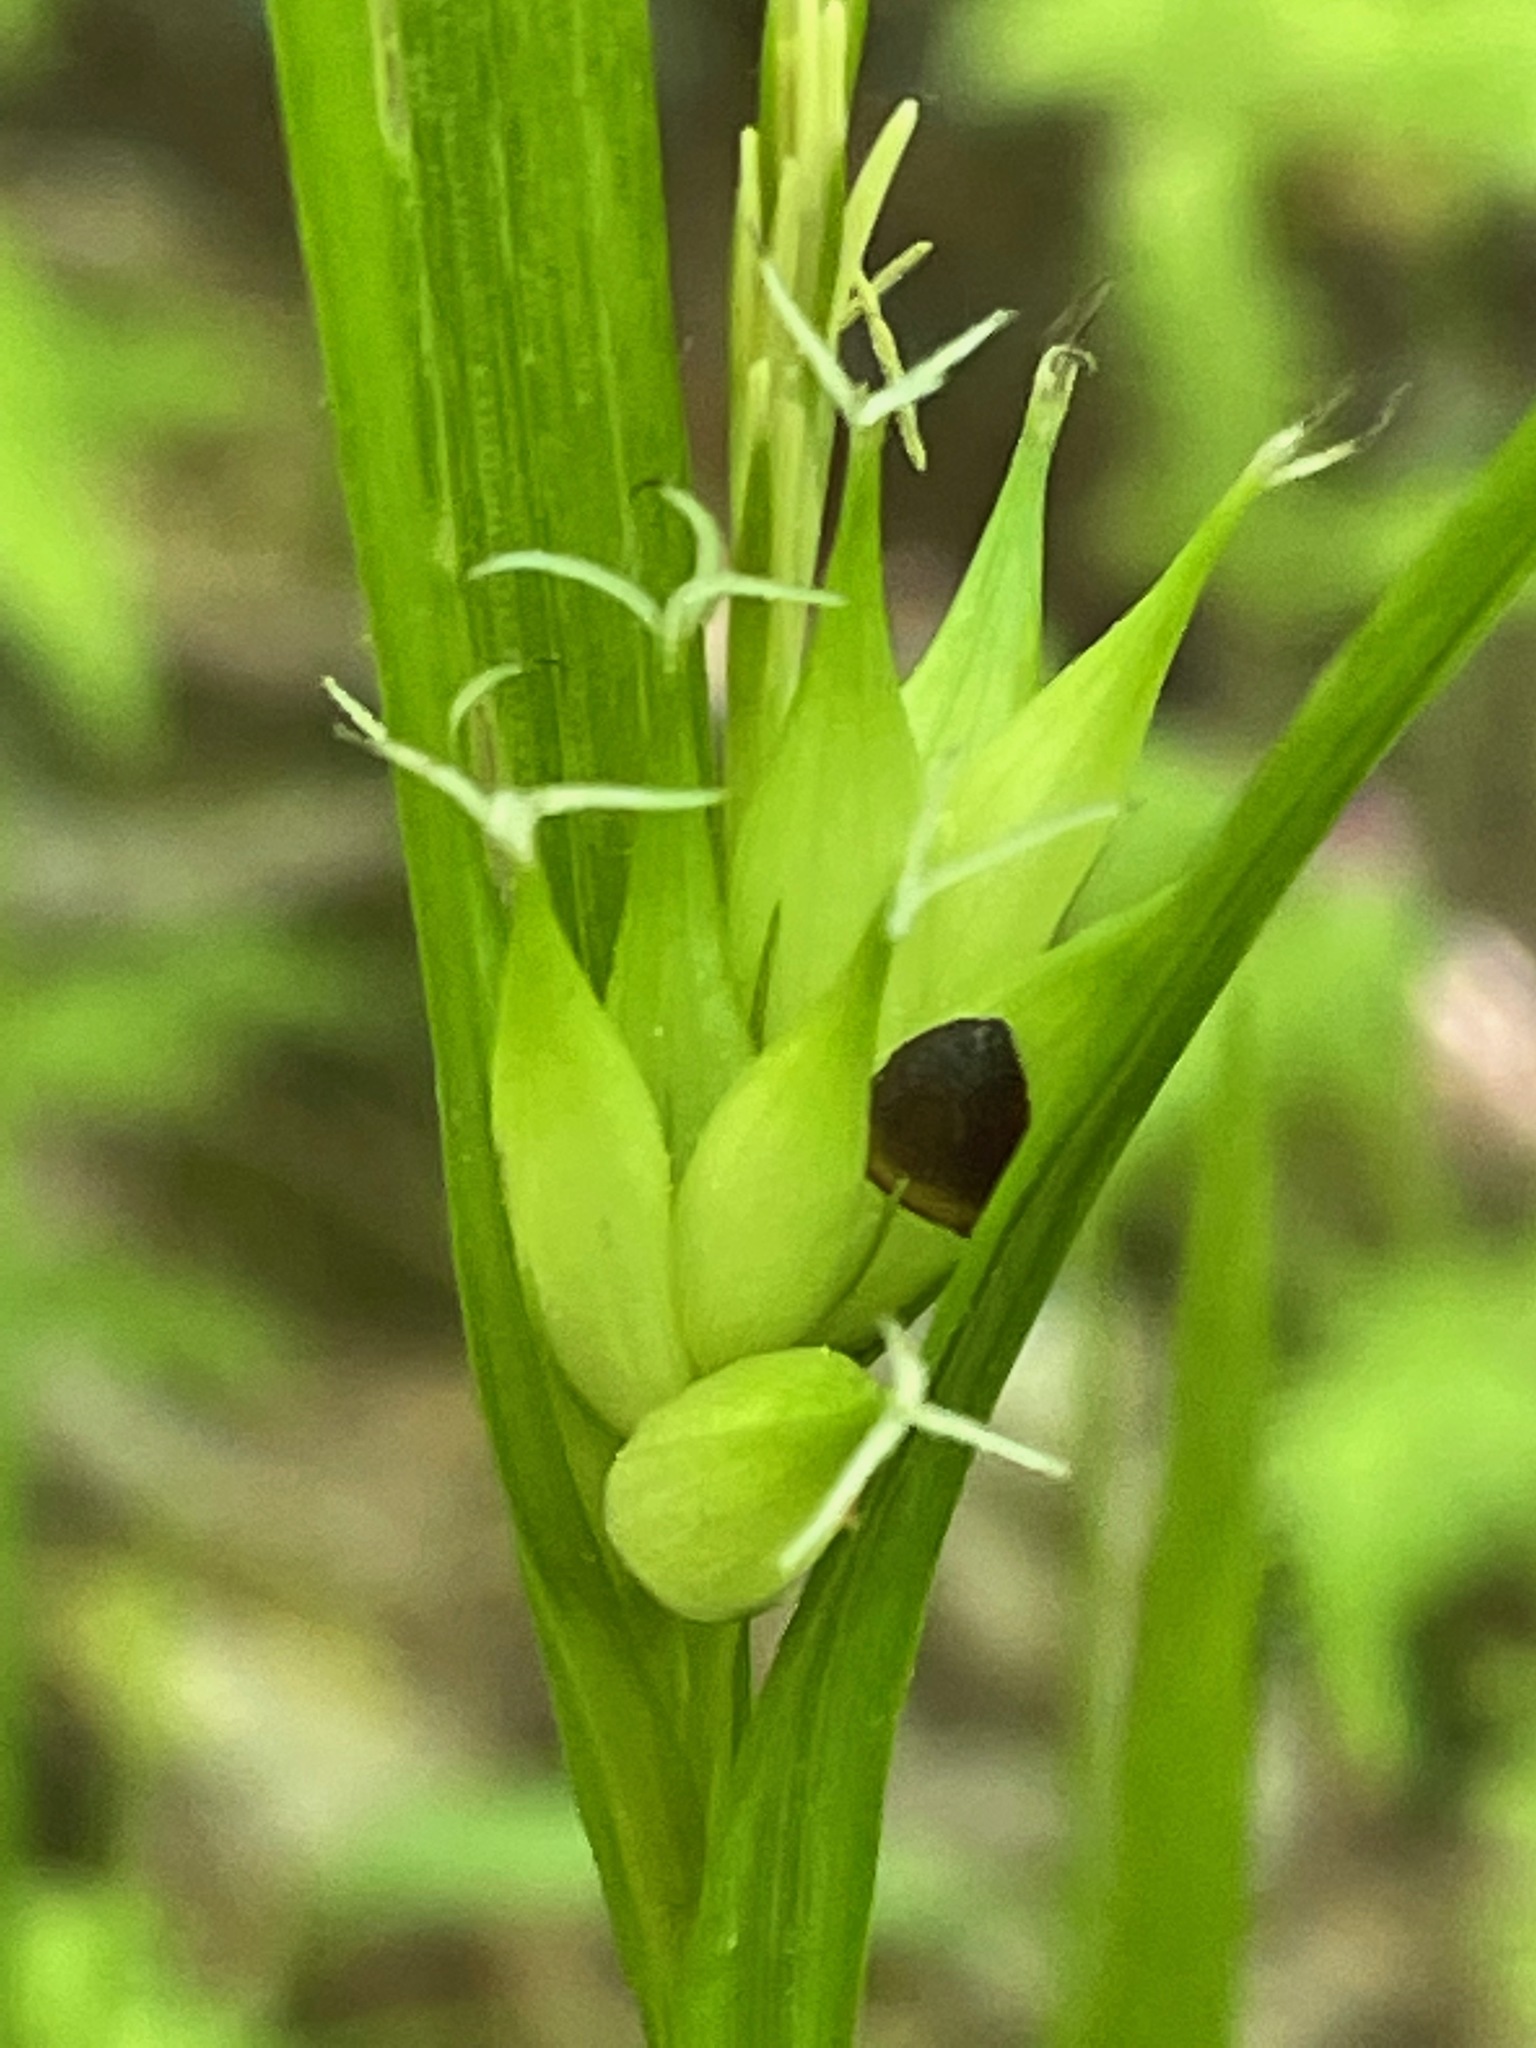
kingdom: Plantae
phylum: Tracheophyta
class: Liliopsida
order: Poales
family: Cyperaceae
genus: Carex
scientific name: Carex intumescens
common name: Greater bladder sedge
